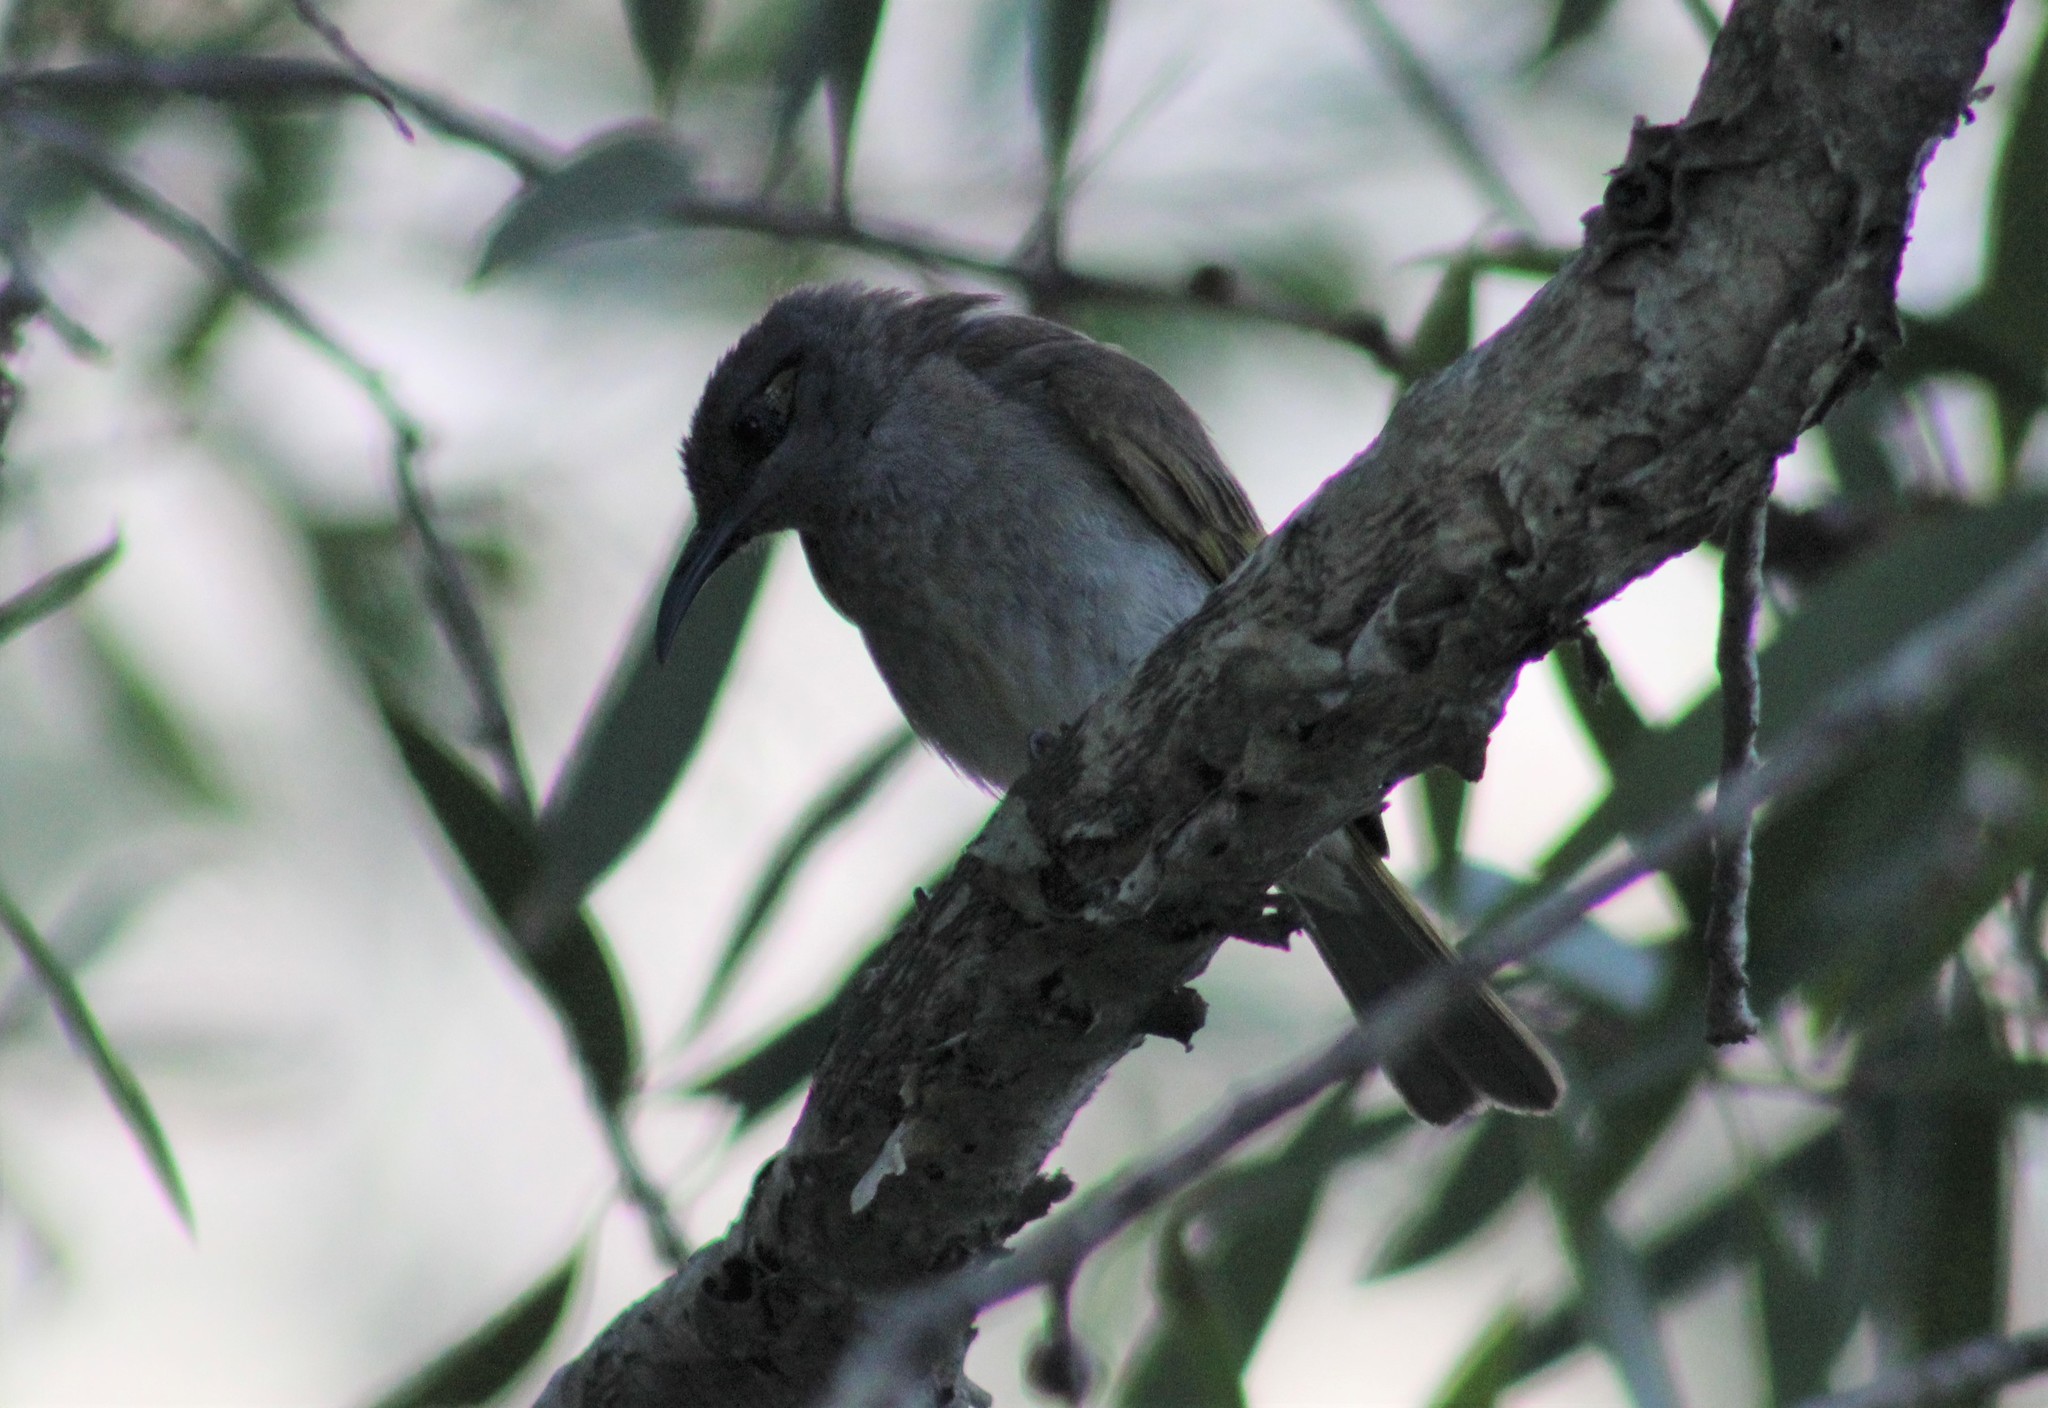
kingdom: Animalia
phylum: Chordata
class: Aves
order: Passeriformes
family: Meliphagidae
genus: Lichmera
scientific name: Lichmera indistincta
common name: Brown honeyeater
